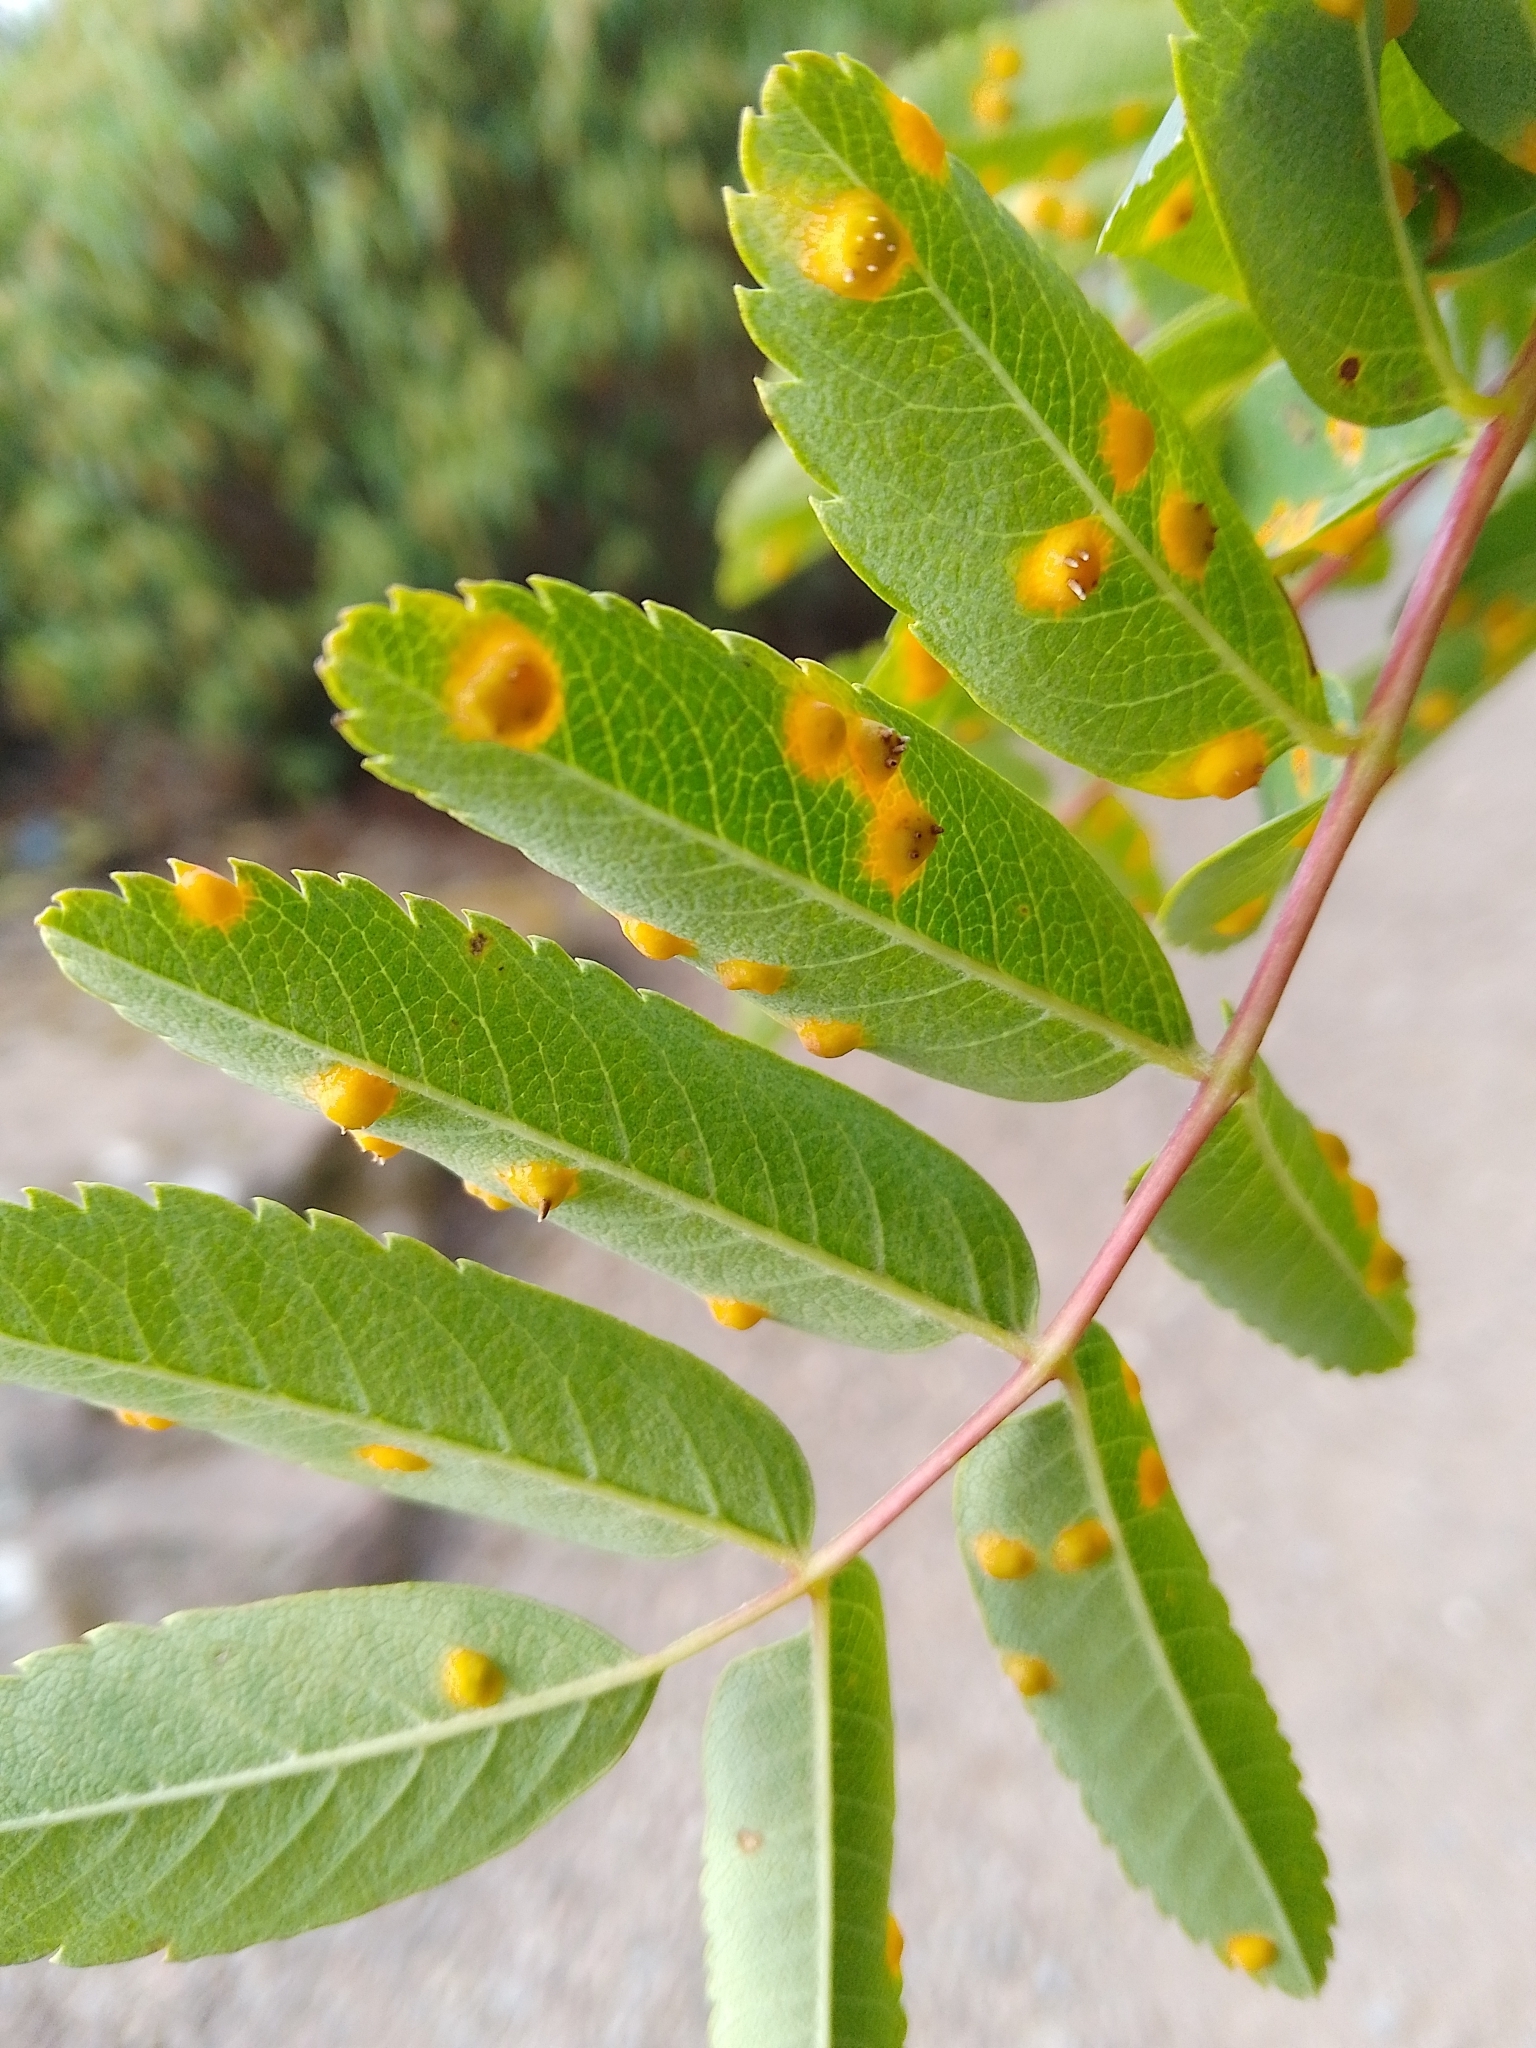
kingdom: Fungi
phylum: Basidiomycota
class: Pucciniomycetes
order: Pucciniales
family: Gymnosporangiaceae
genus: Gymnosporangium
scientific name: Gymnosporangium cornutum
